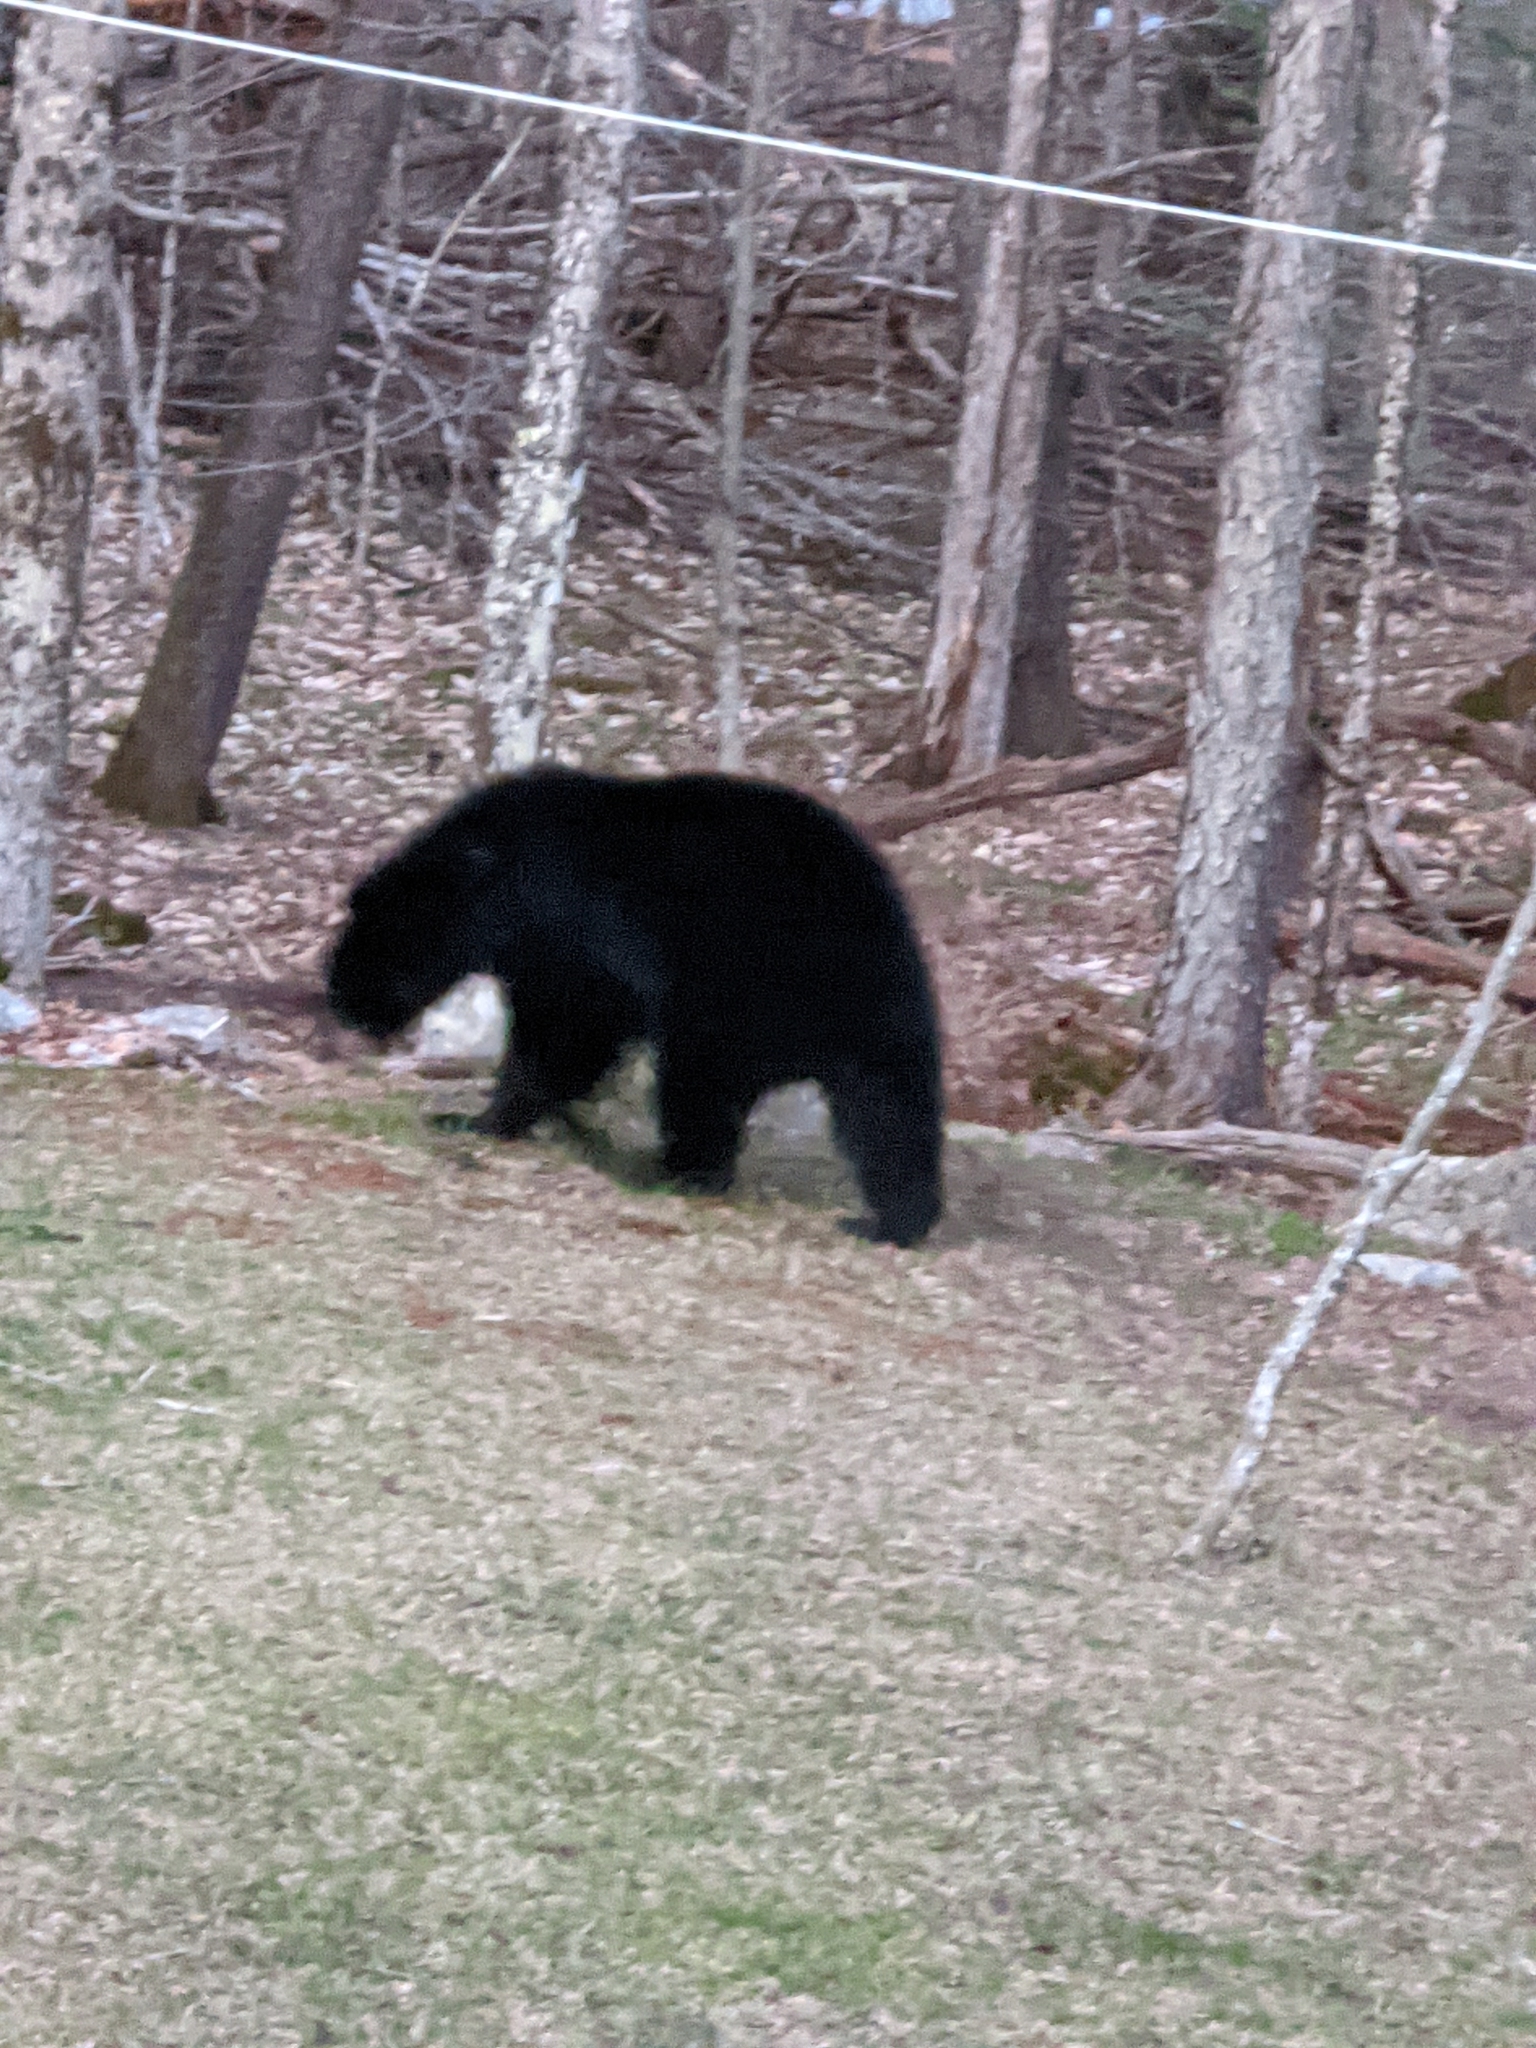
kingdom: Animalia
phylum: Chordata
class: Mammalia
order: Carnivora
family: Ursidae
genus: Ursus
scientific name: Ursus americanus
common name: American black bear
